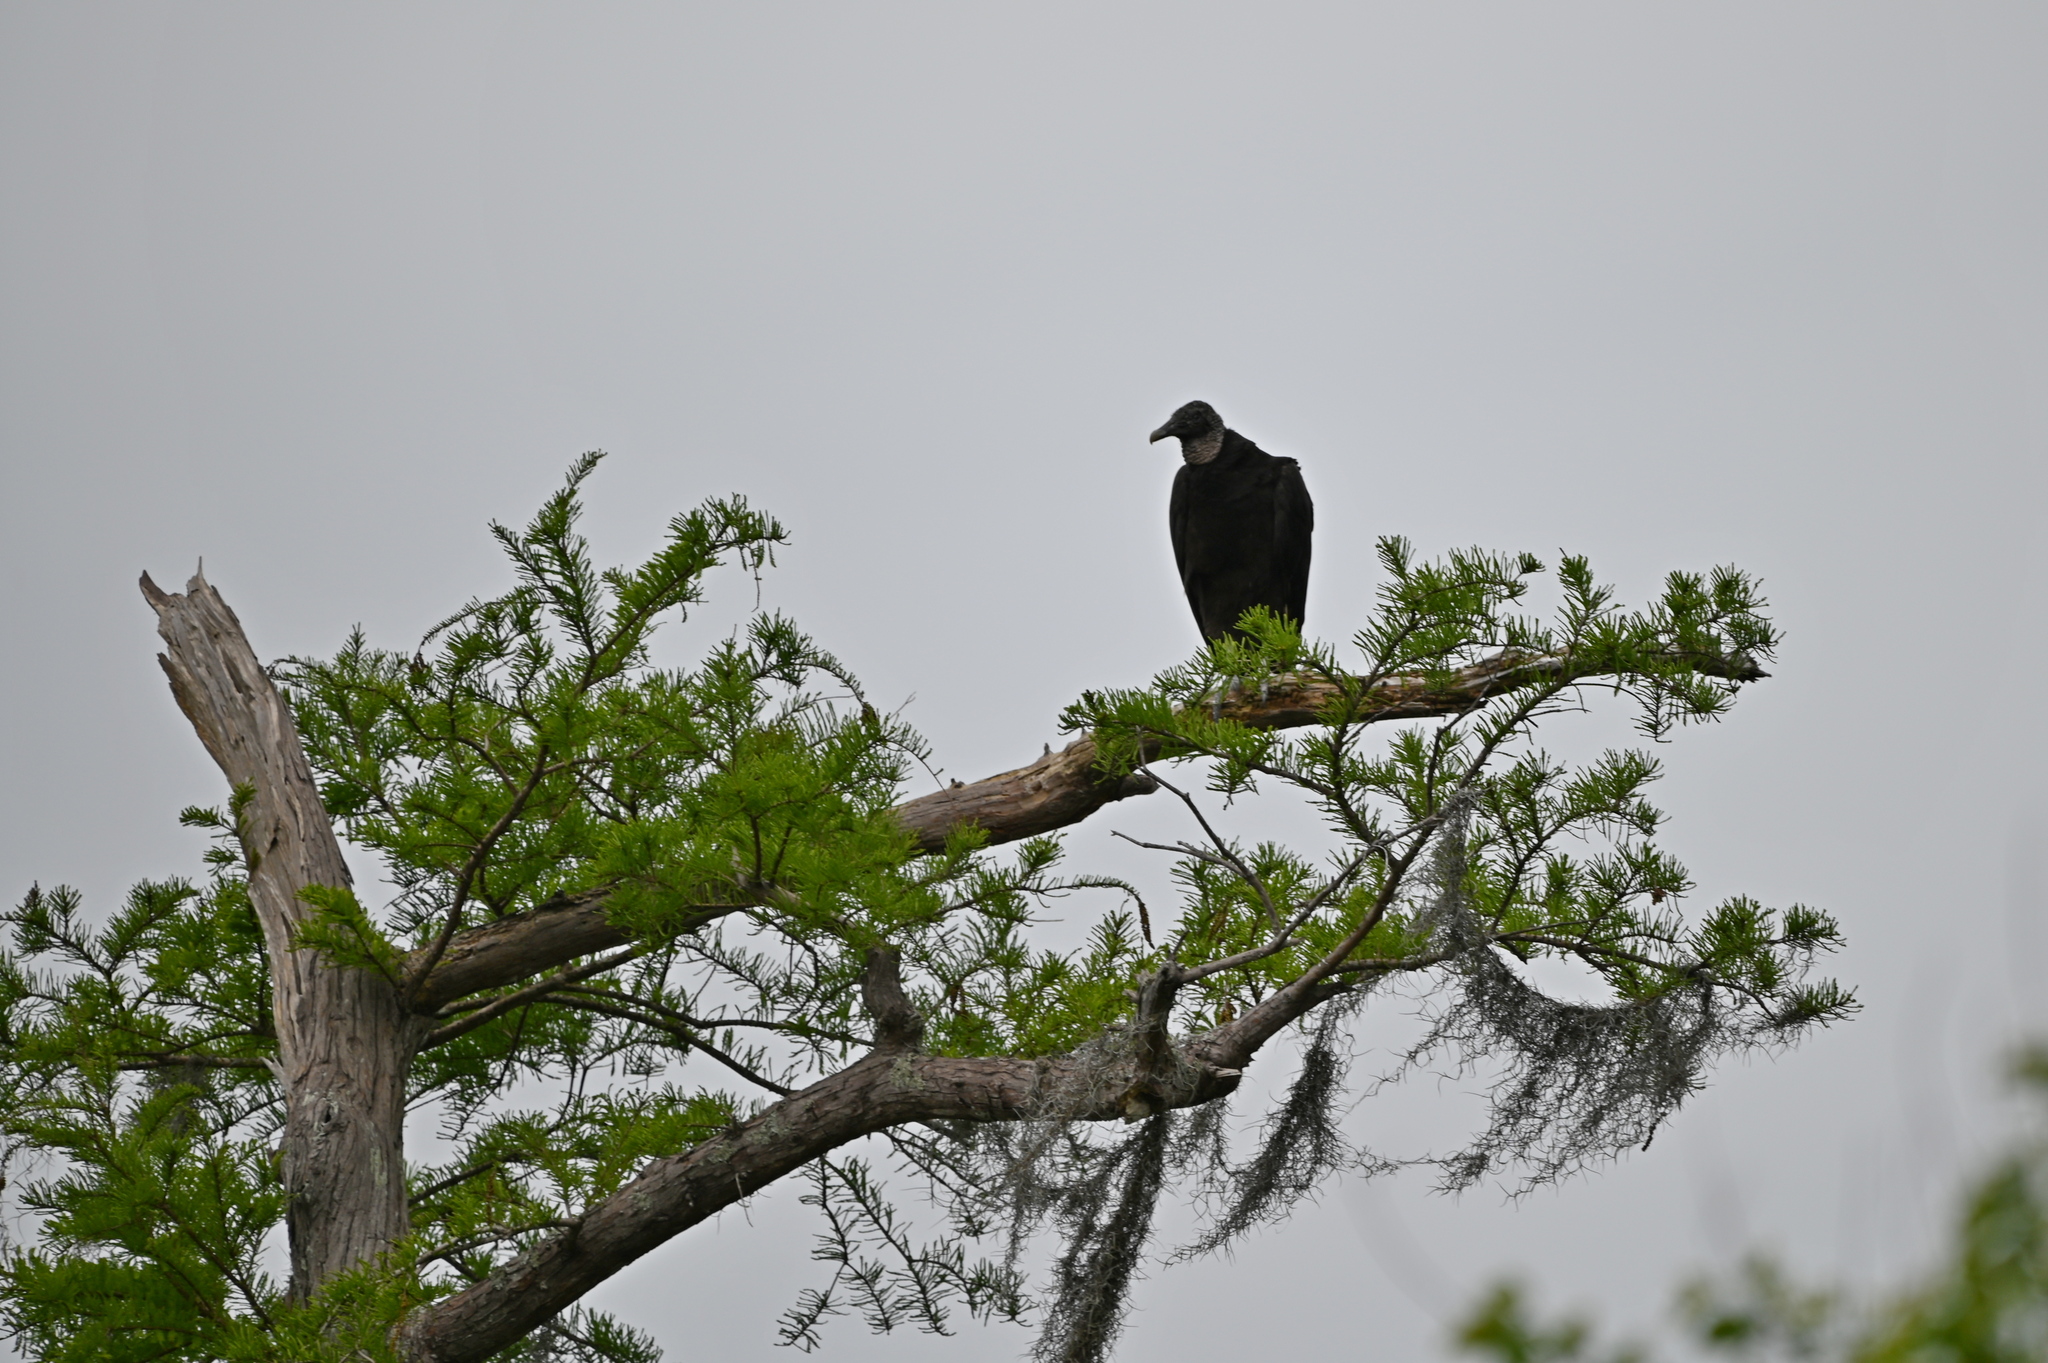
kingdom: Animalia
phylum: Chordata
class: Aves
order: Accipitriformes
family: Cathartidae
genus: Coragyps
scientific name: Coragyps atratus
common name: Black vulture
